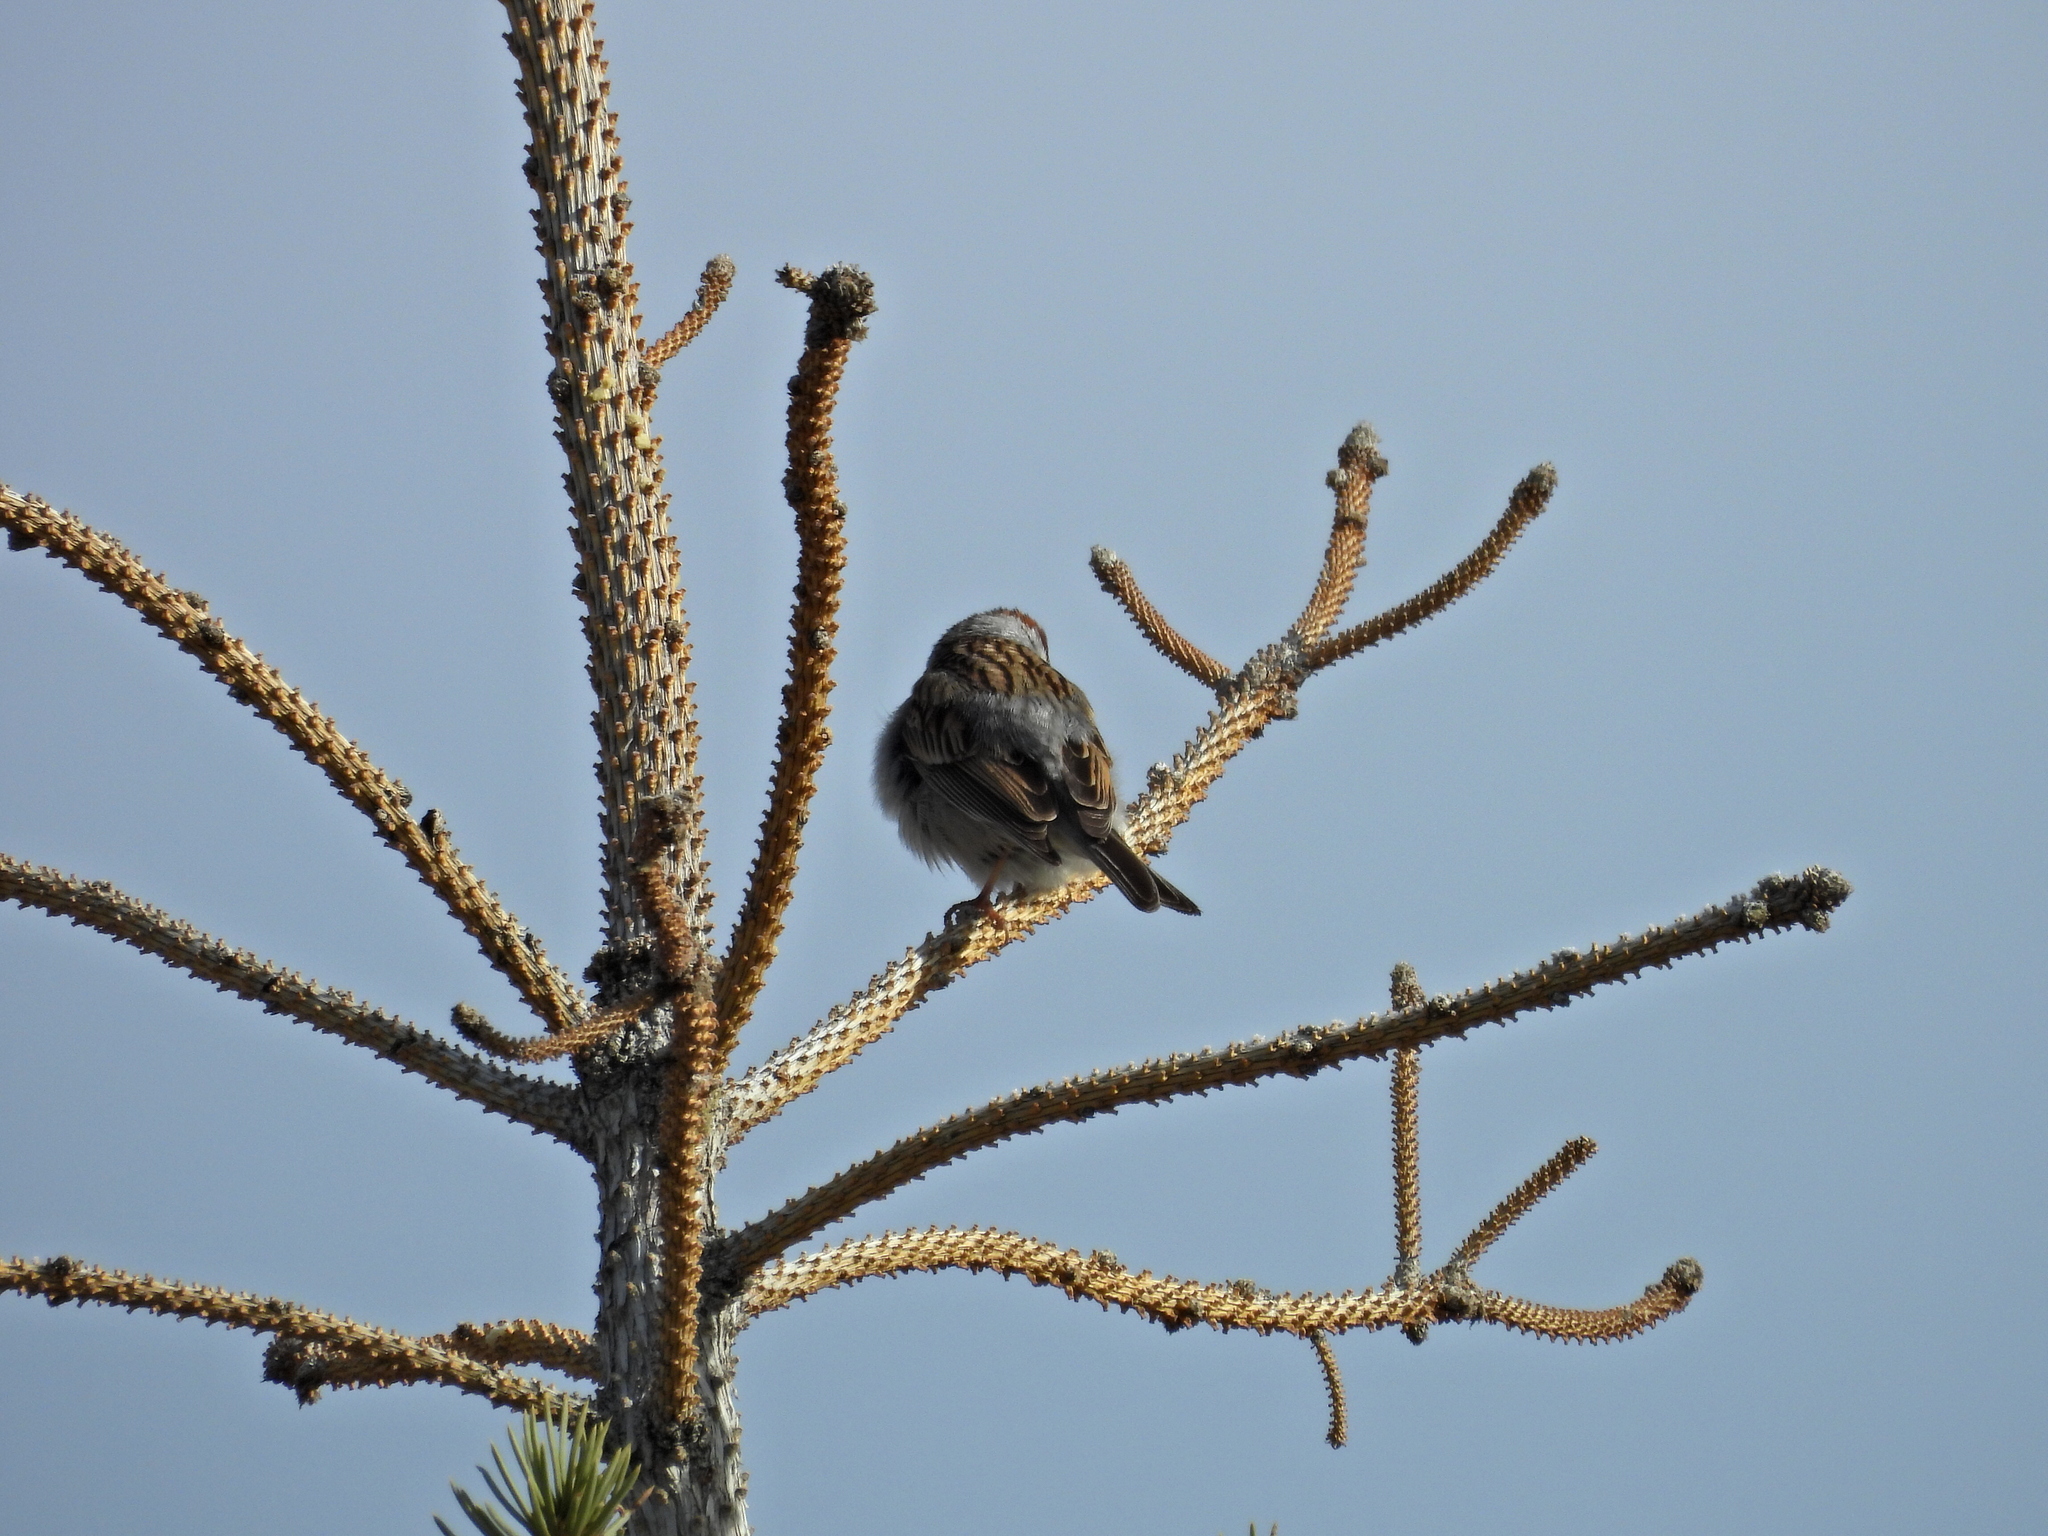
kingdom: Animalia
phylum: Chordata
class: Aves
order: Passeriformes
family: Passerellidae
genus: Spizella
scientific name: Spizella passerina
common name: Chipping sparrow
